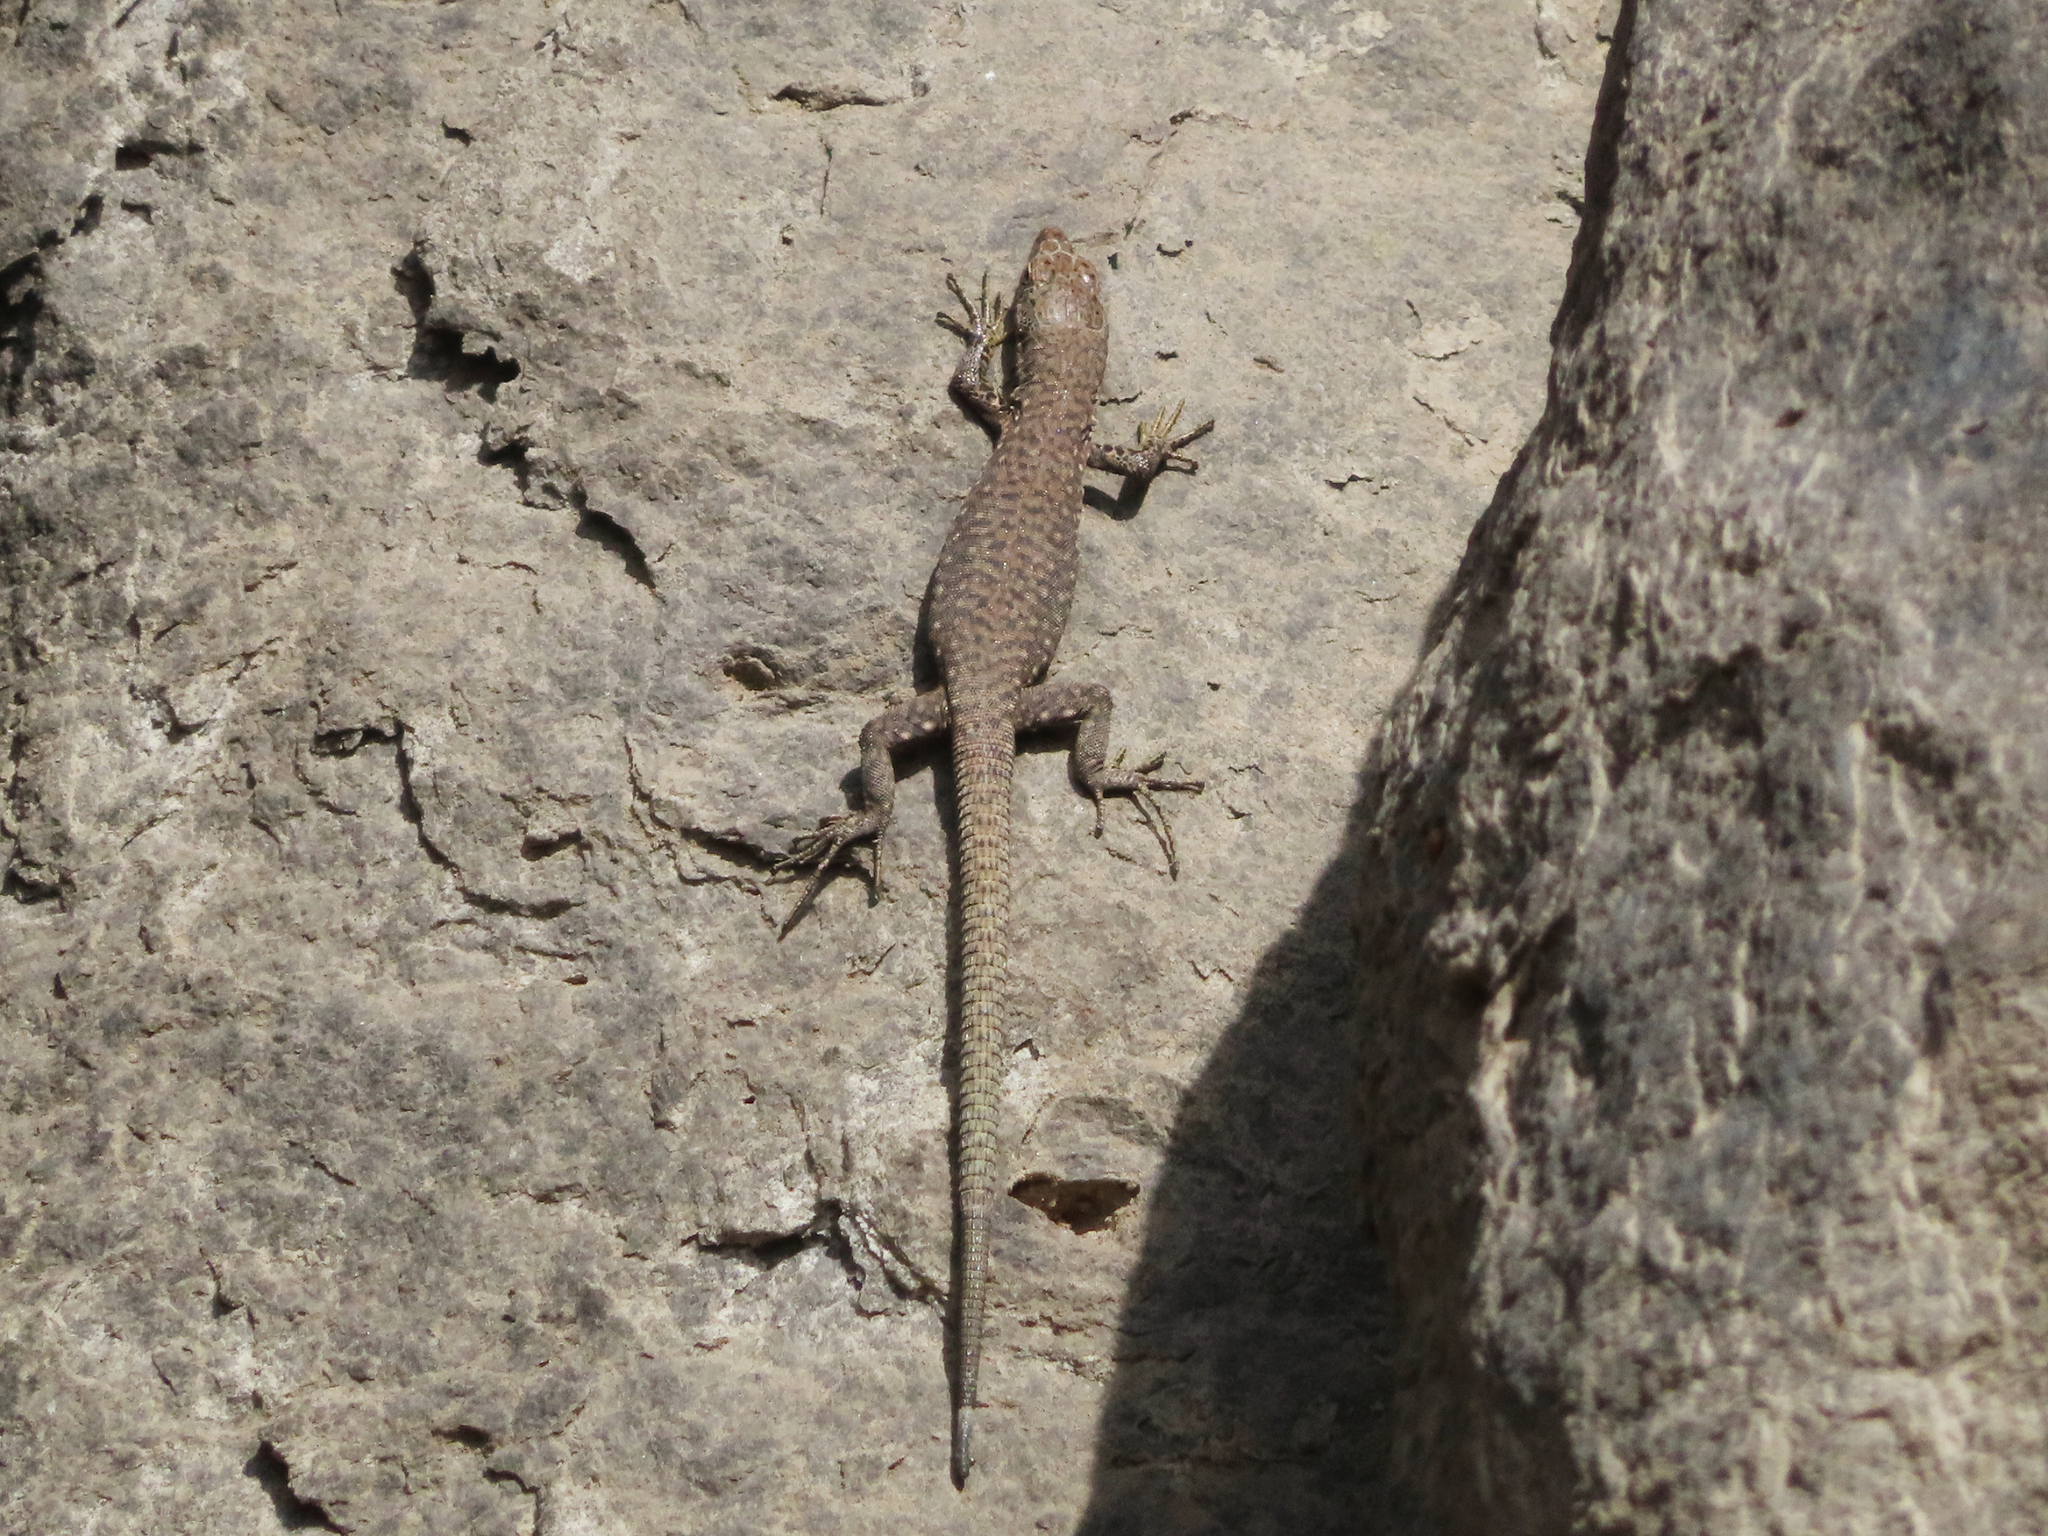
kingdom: Animalia
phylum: Chordata
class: Squamata
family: Lacertidae
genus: Darevskia
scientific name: Darevskia
